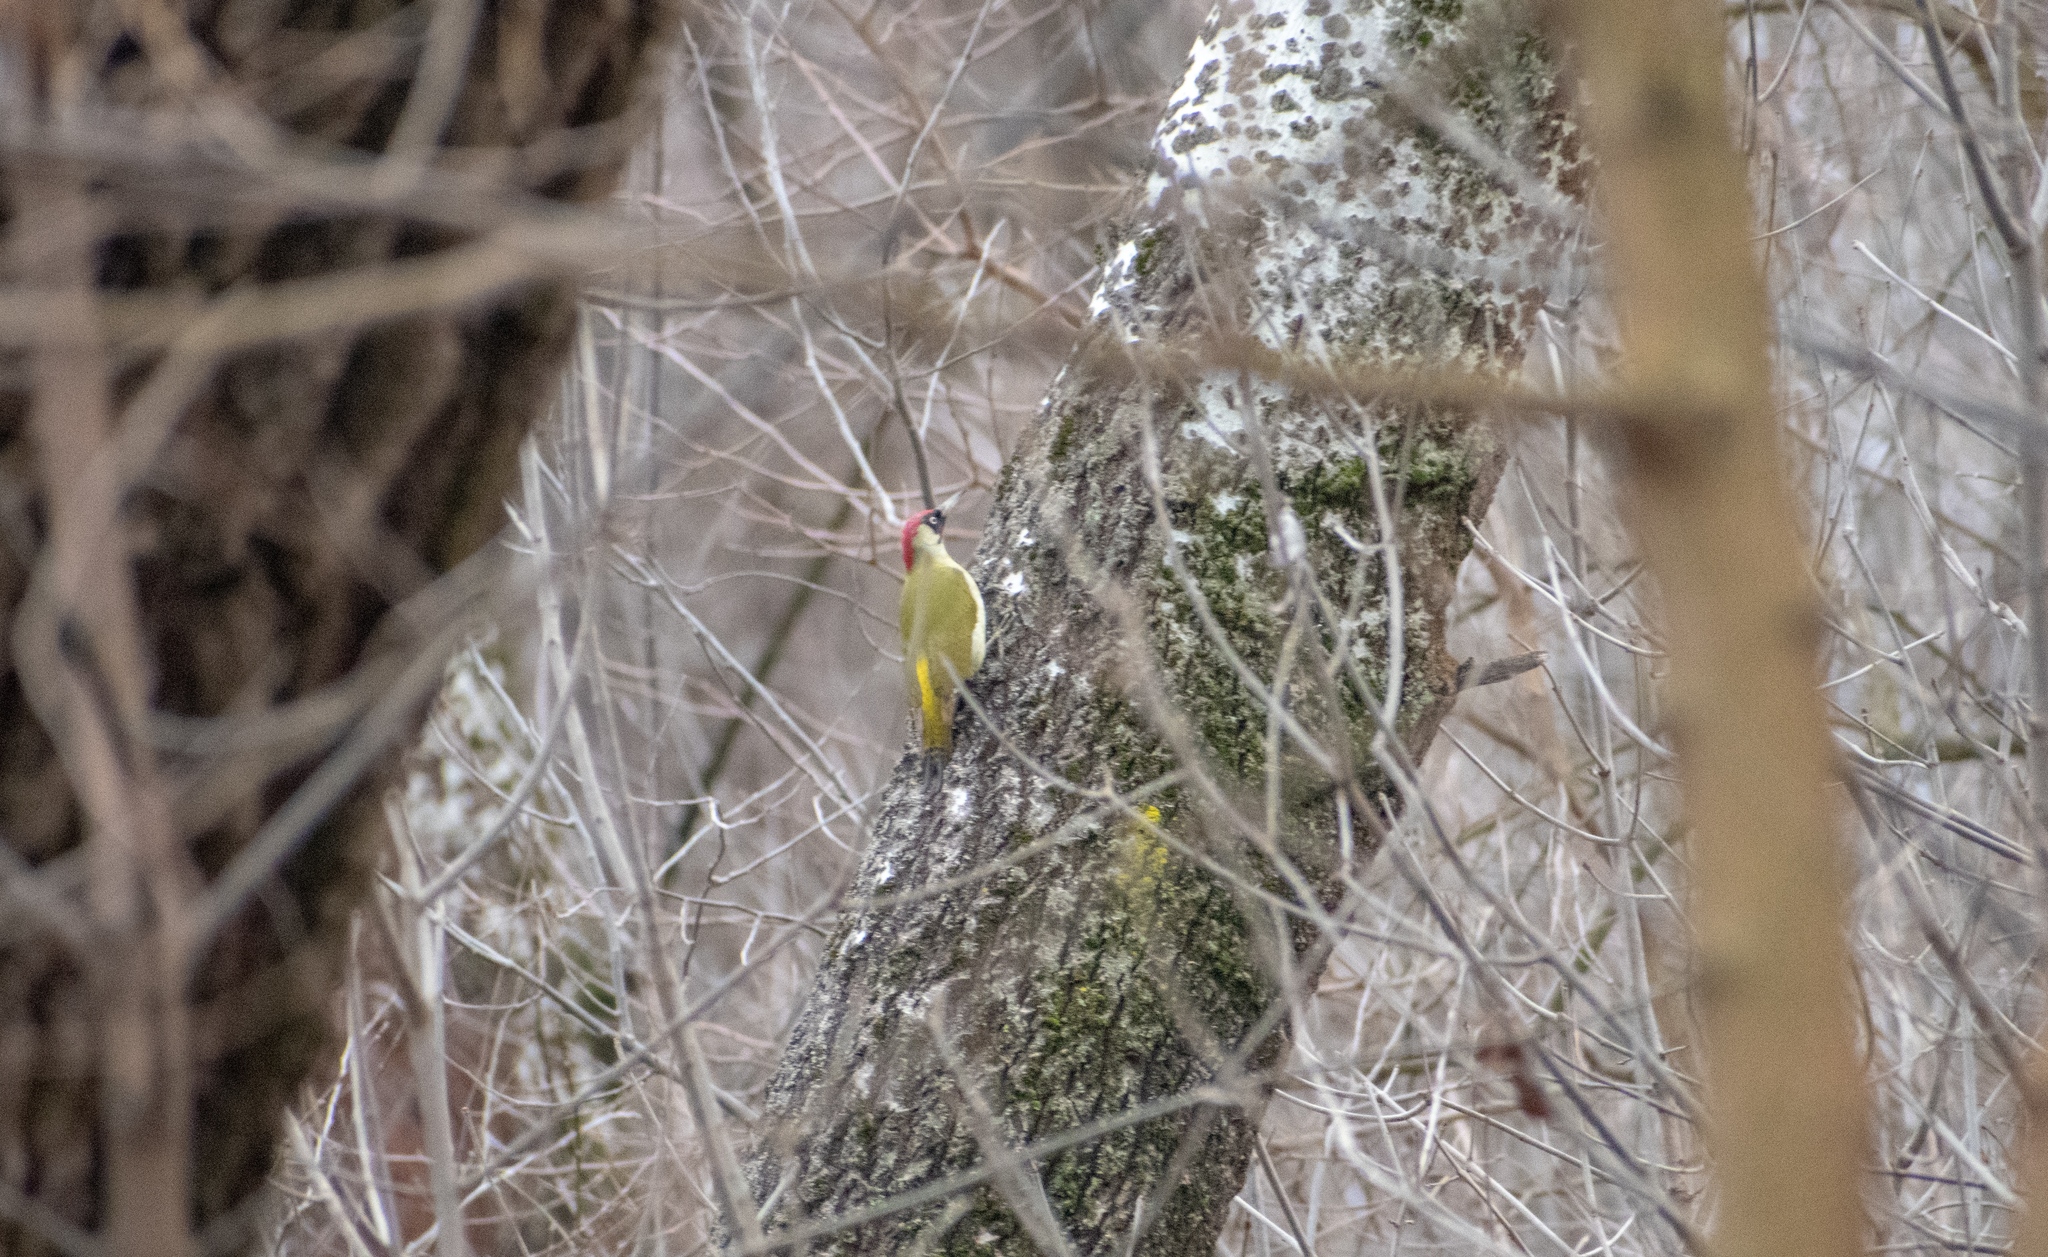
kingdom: Animalia
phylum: Chordata
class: Aves
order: Piciformes
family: Picidae
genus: Picus
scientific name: Picus viridis
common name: European green woodpecker
